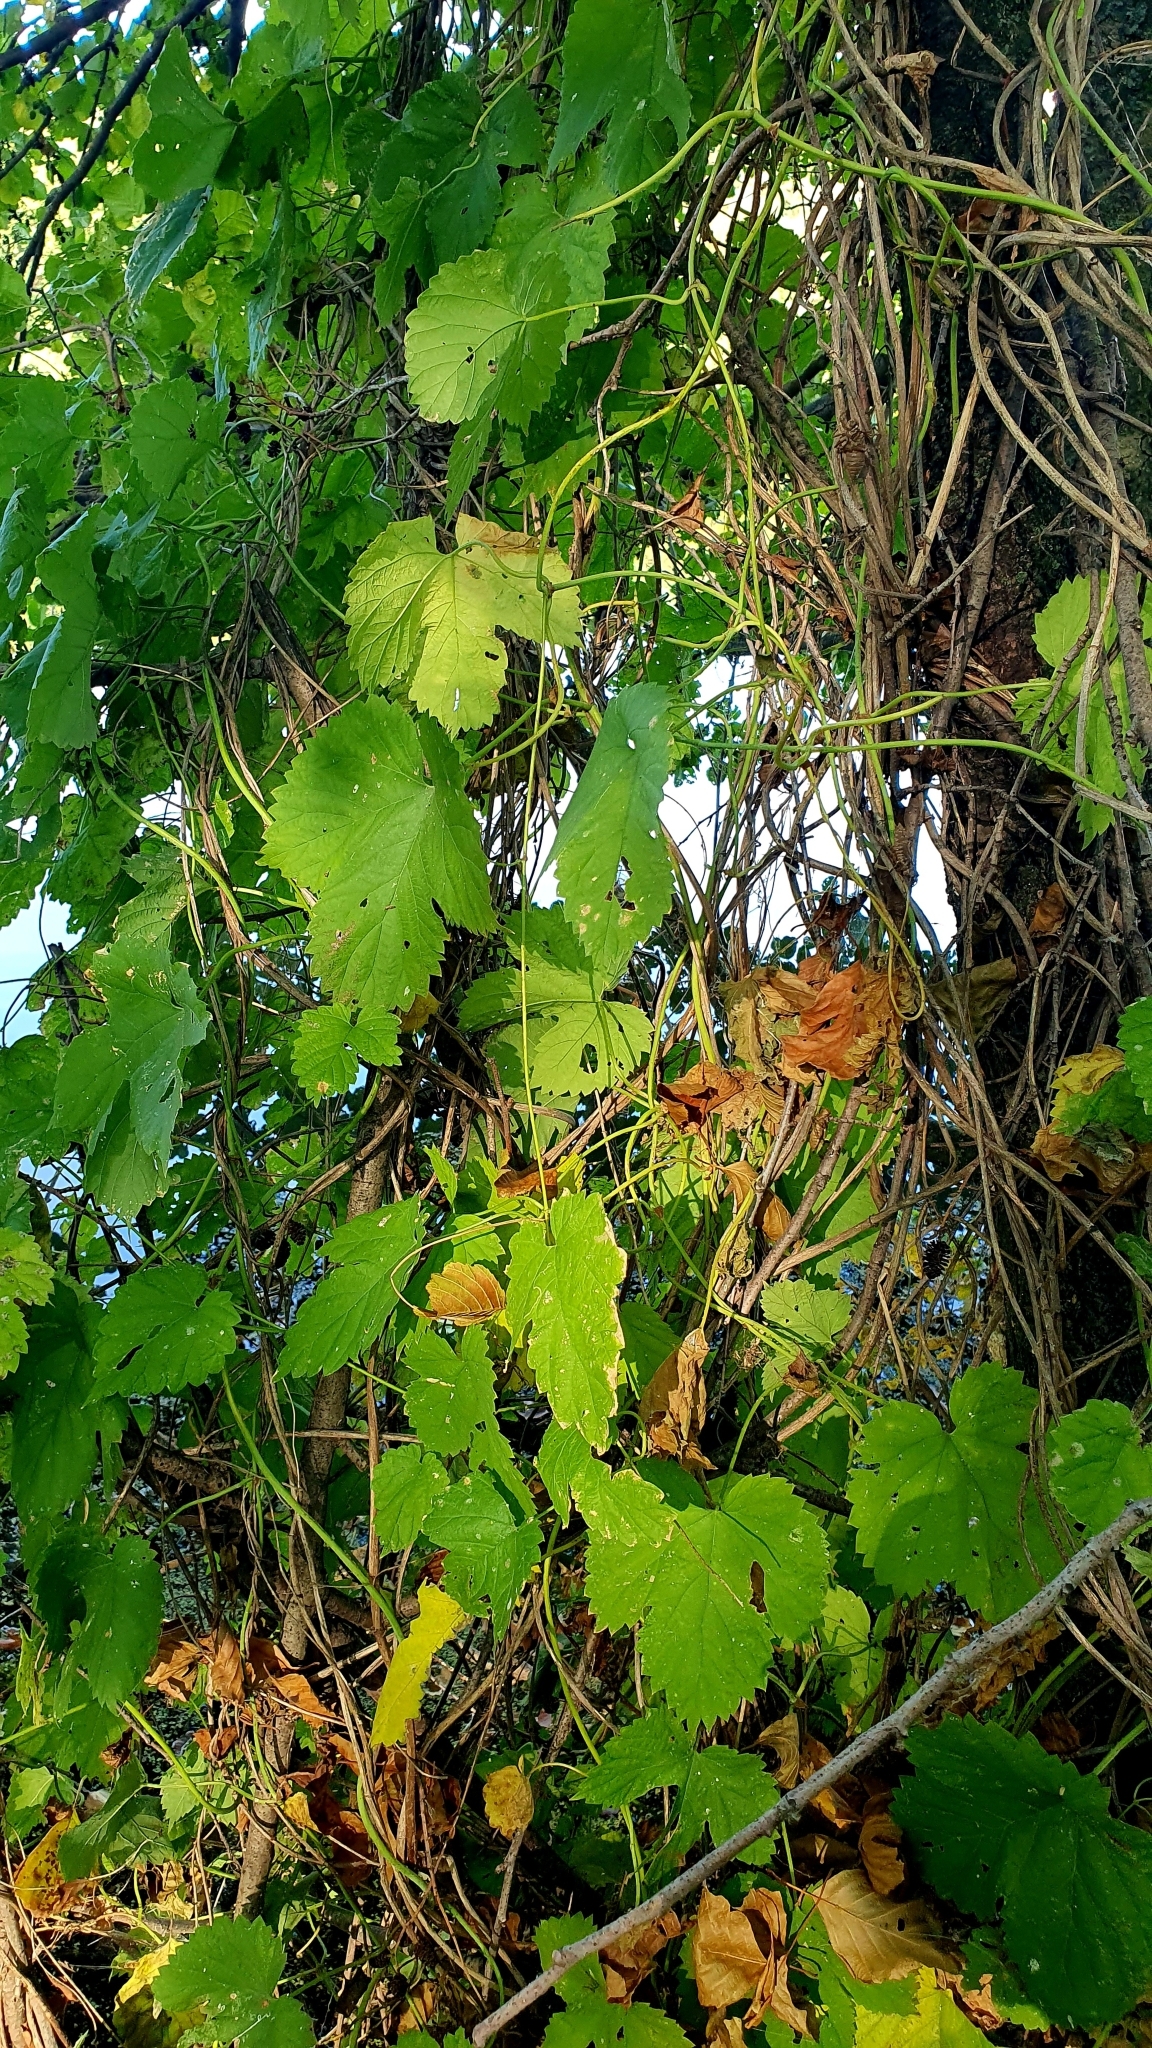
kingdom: Plantae
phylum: Tracheophyta
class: Magnoliopsida
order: Rosales
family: Cannabaceae
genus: Humulus
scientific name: Humulus lupulus
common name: Hop
